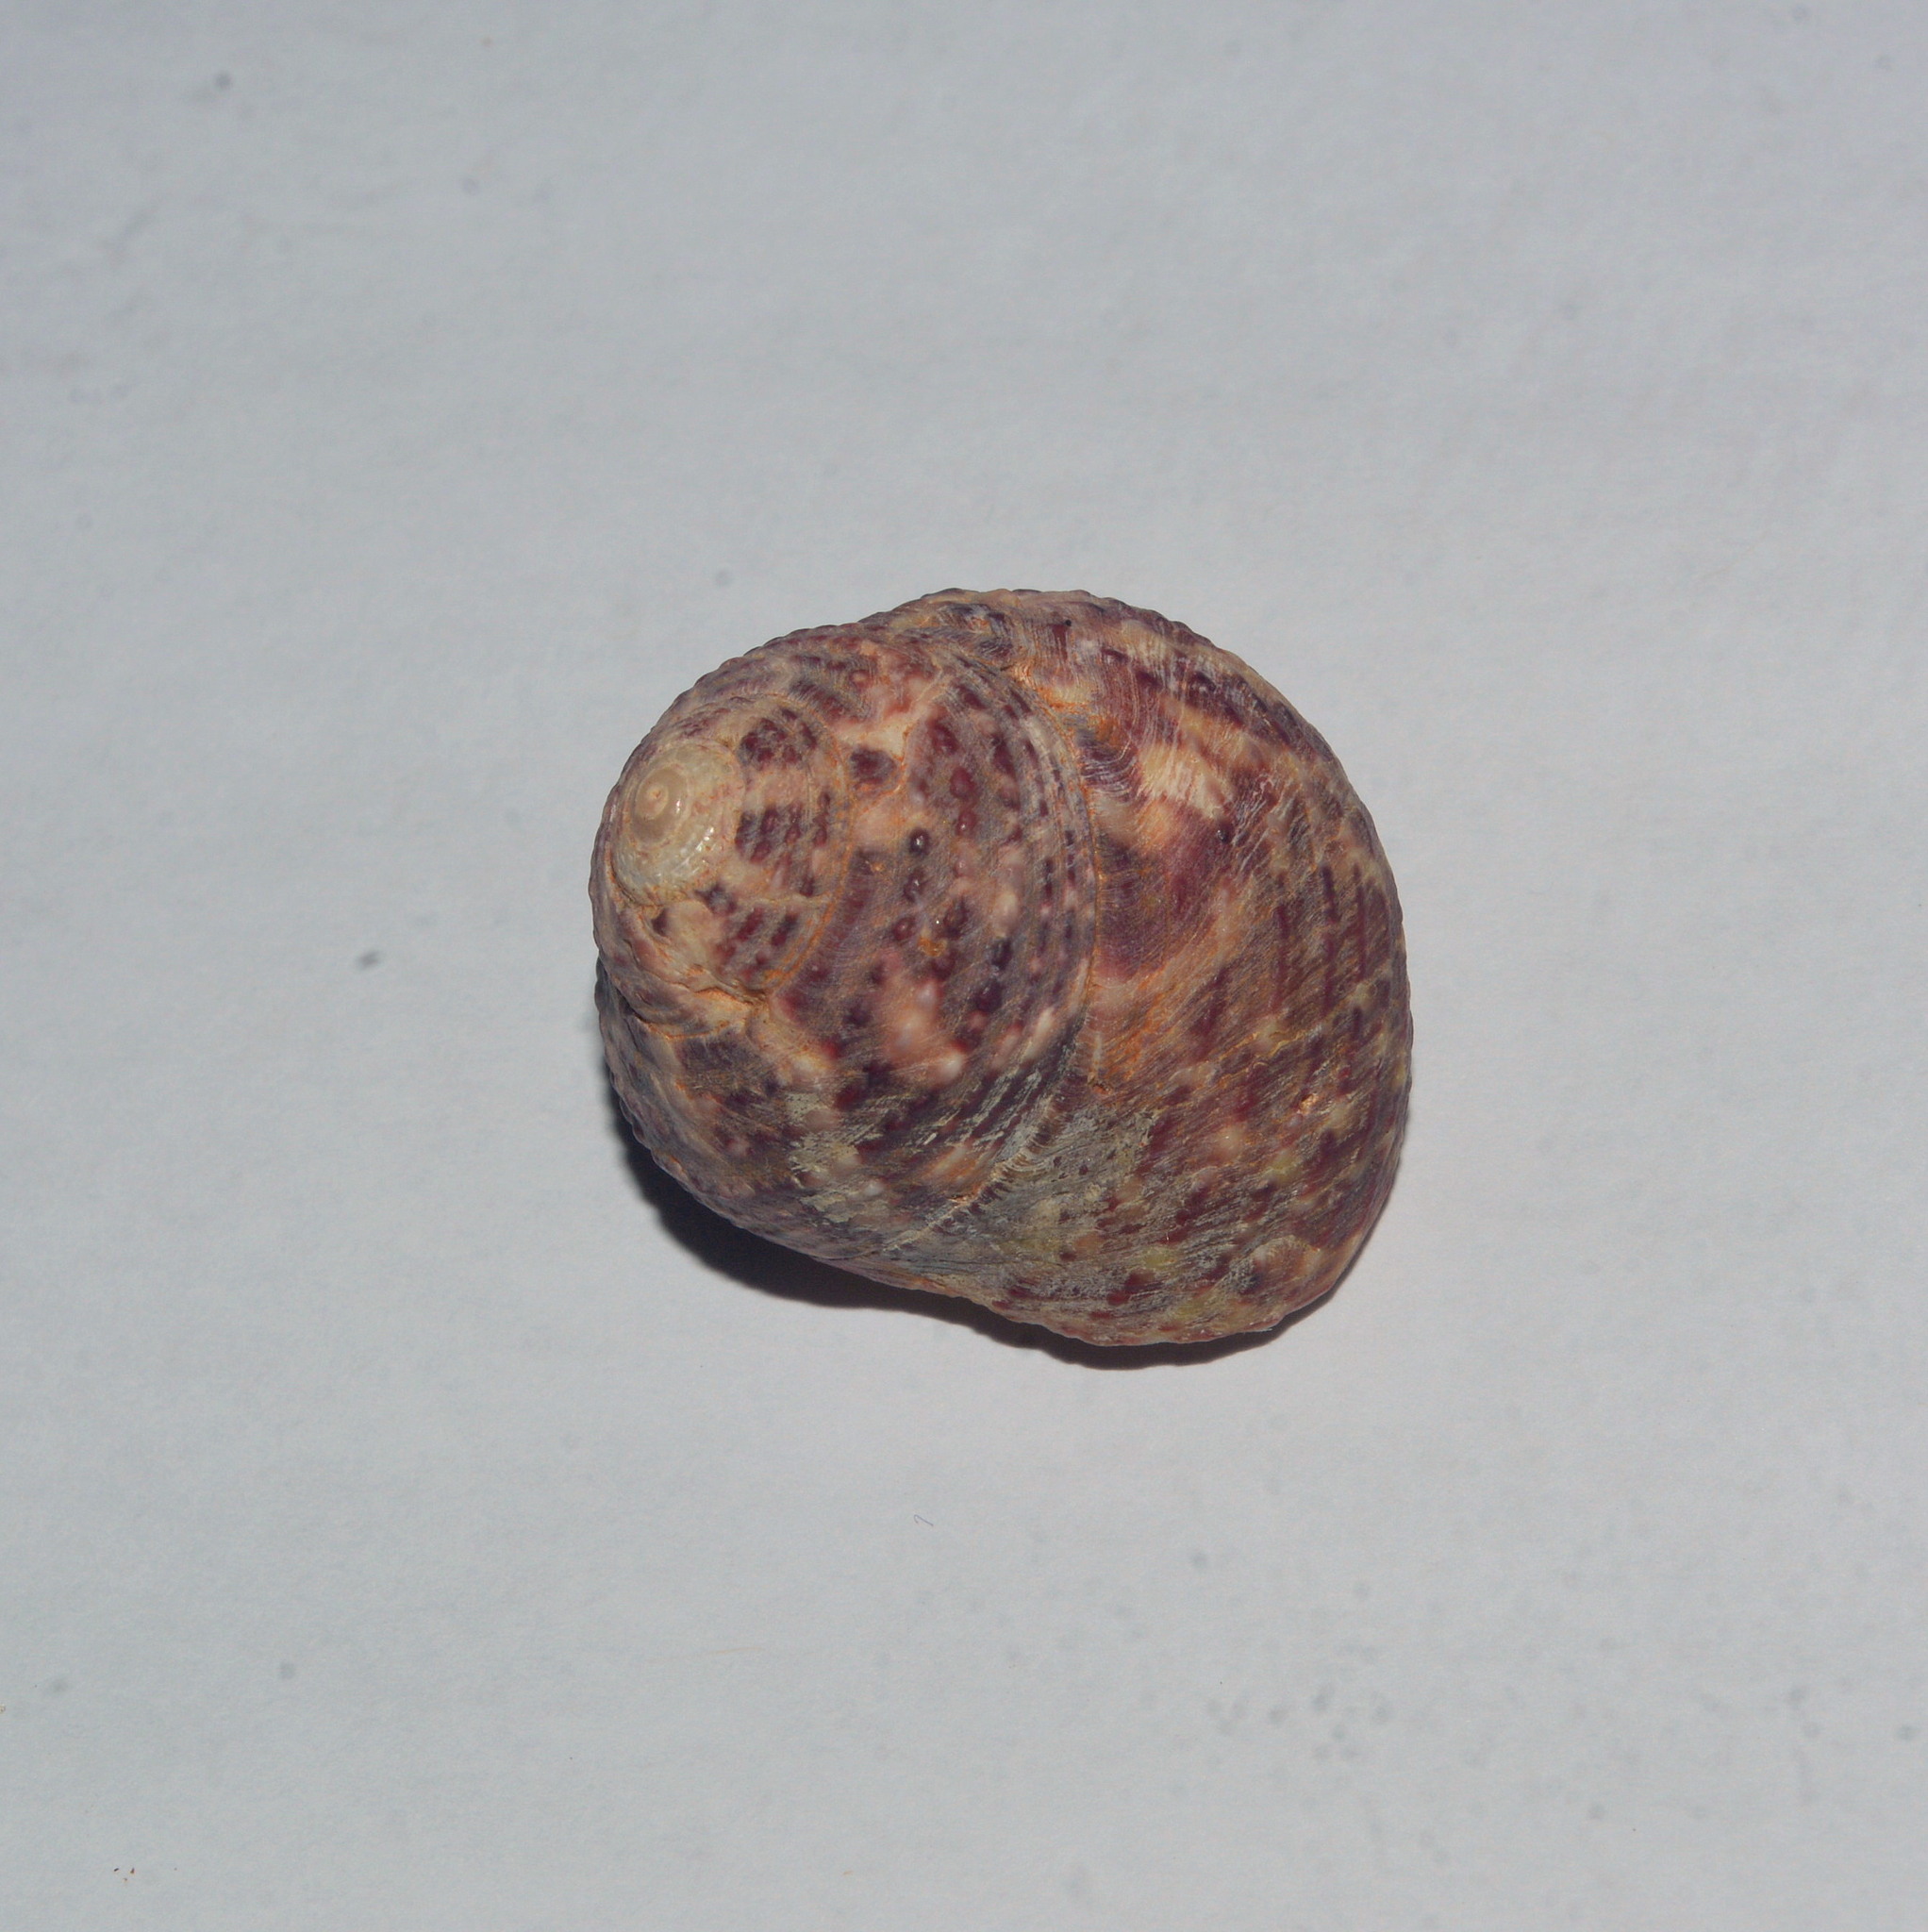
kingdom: Animalia
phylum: Mollusca
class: Gastropoda
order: Trochida
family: Tegulidae
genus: Agathistoma
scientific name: Agathistoma viridulum
